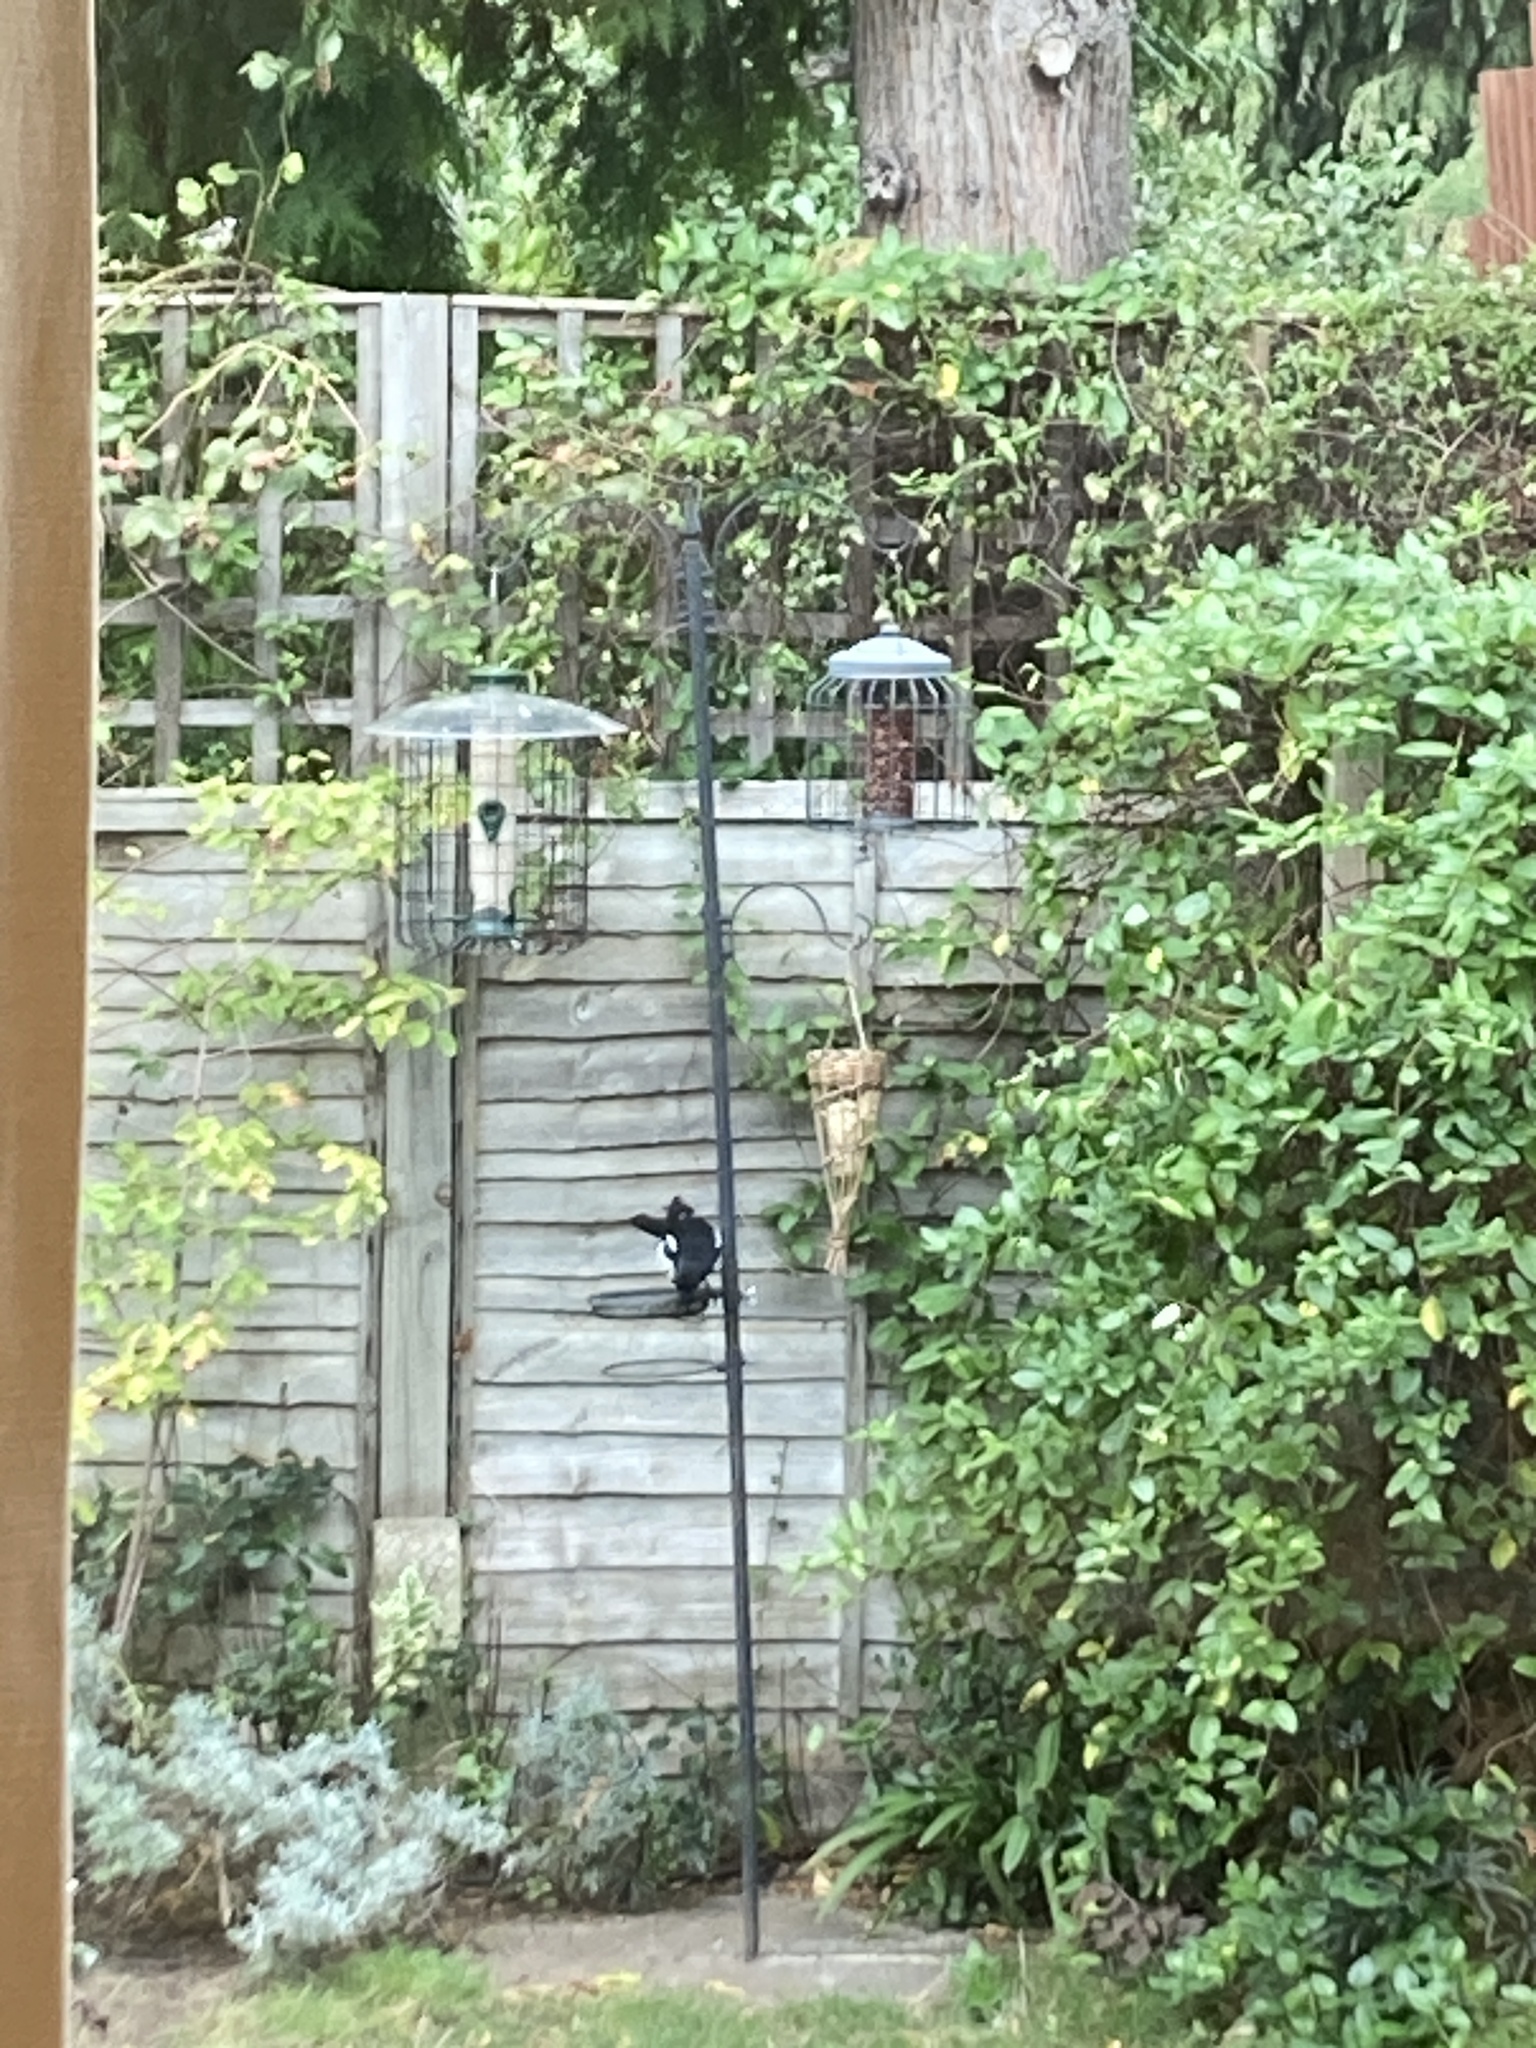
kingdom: Animalia
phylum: Chordata
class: Aves
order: Passeriformes
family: Corvidae
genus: Pica
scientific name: Pica pica
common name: Eurasian magpie
